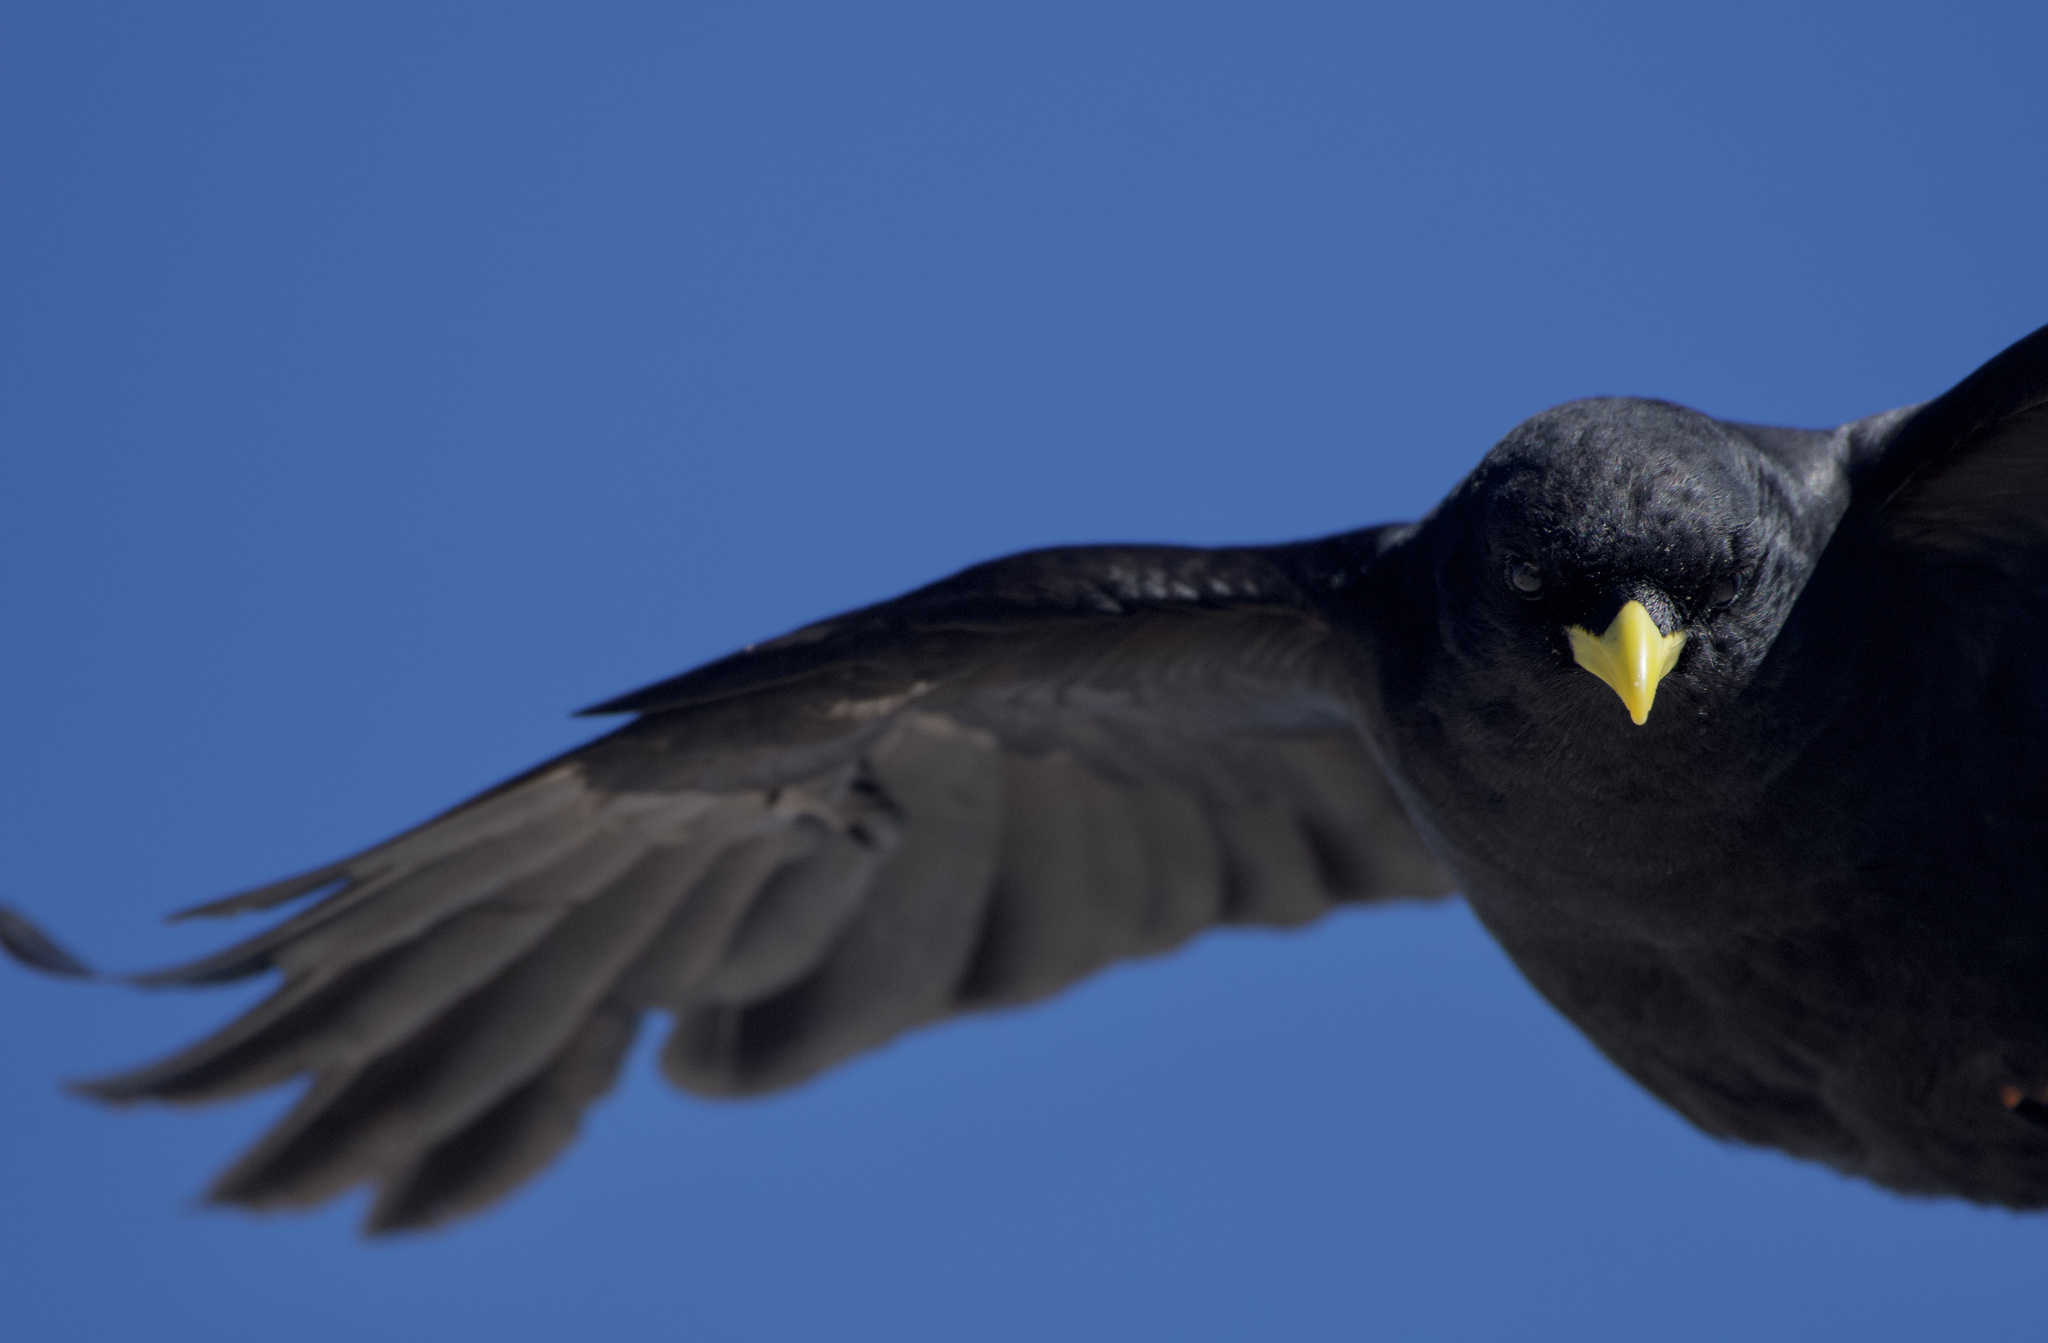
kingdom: Animalia
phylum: Chordata
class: Aves
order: Passeriformes
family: Corvidae
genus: Pyrrhocorax
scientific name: Pyrrhocorax graculus
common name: Alpine chough
